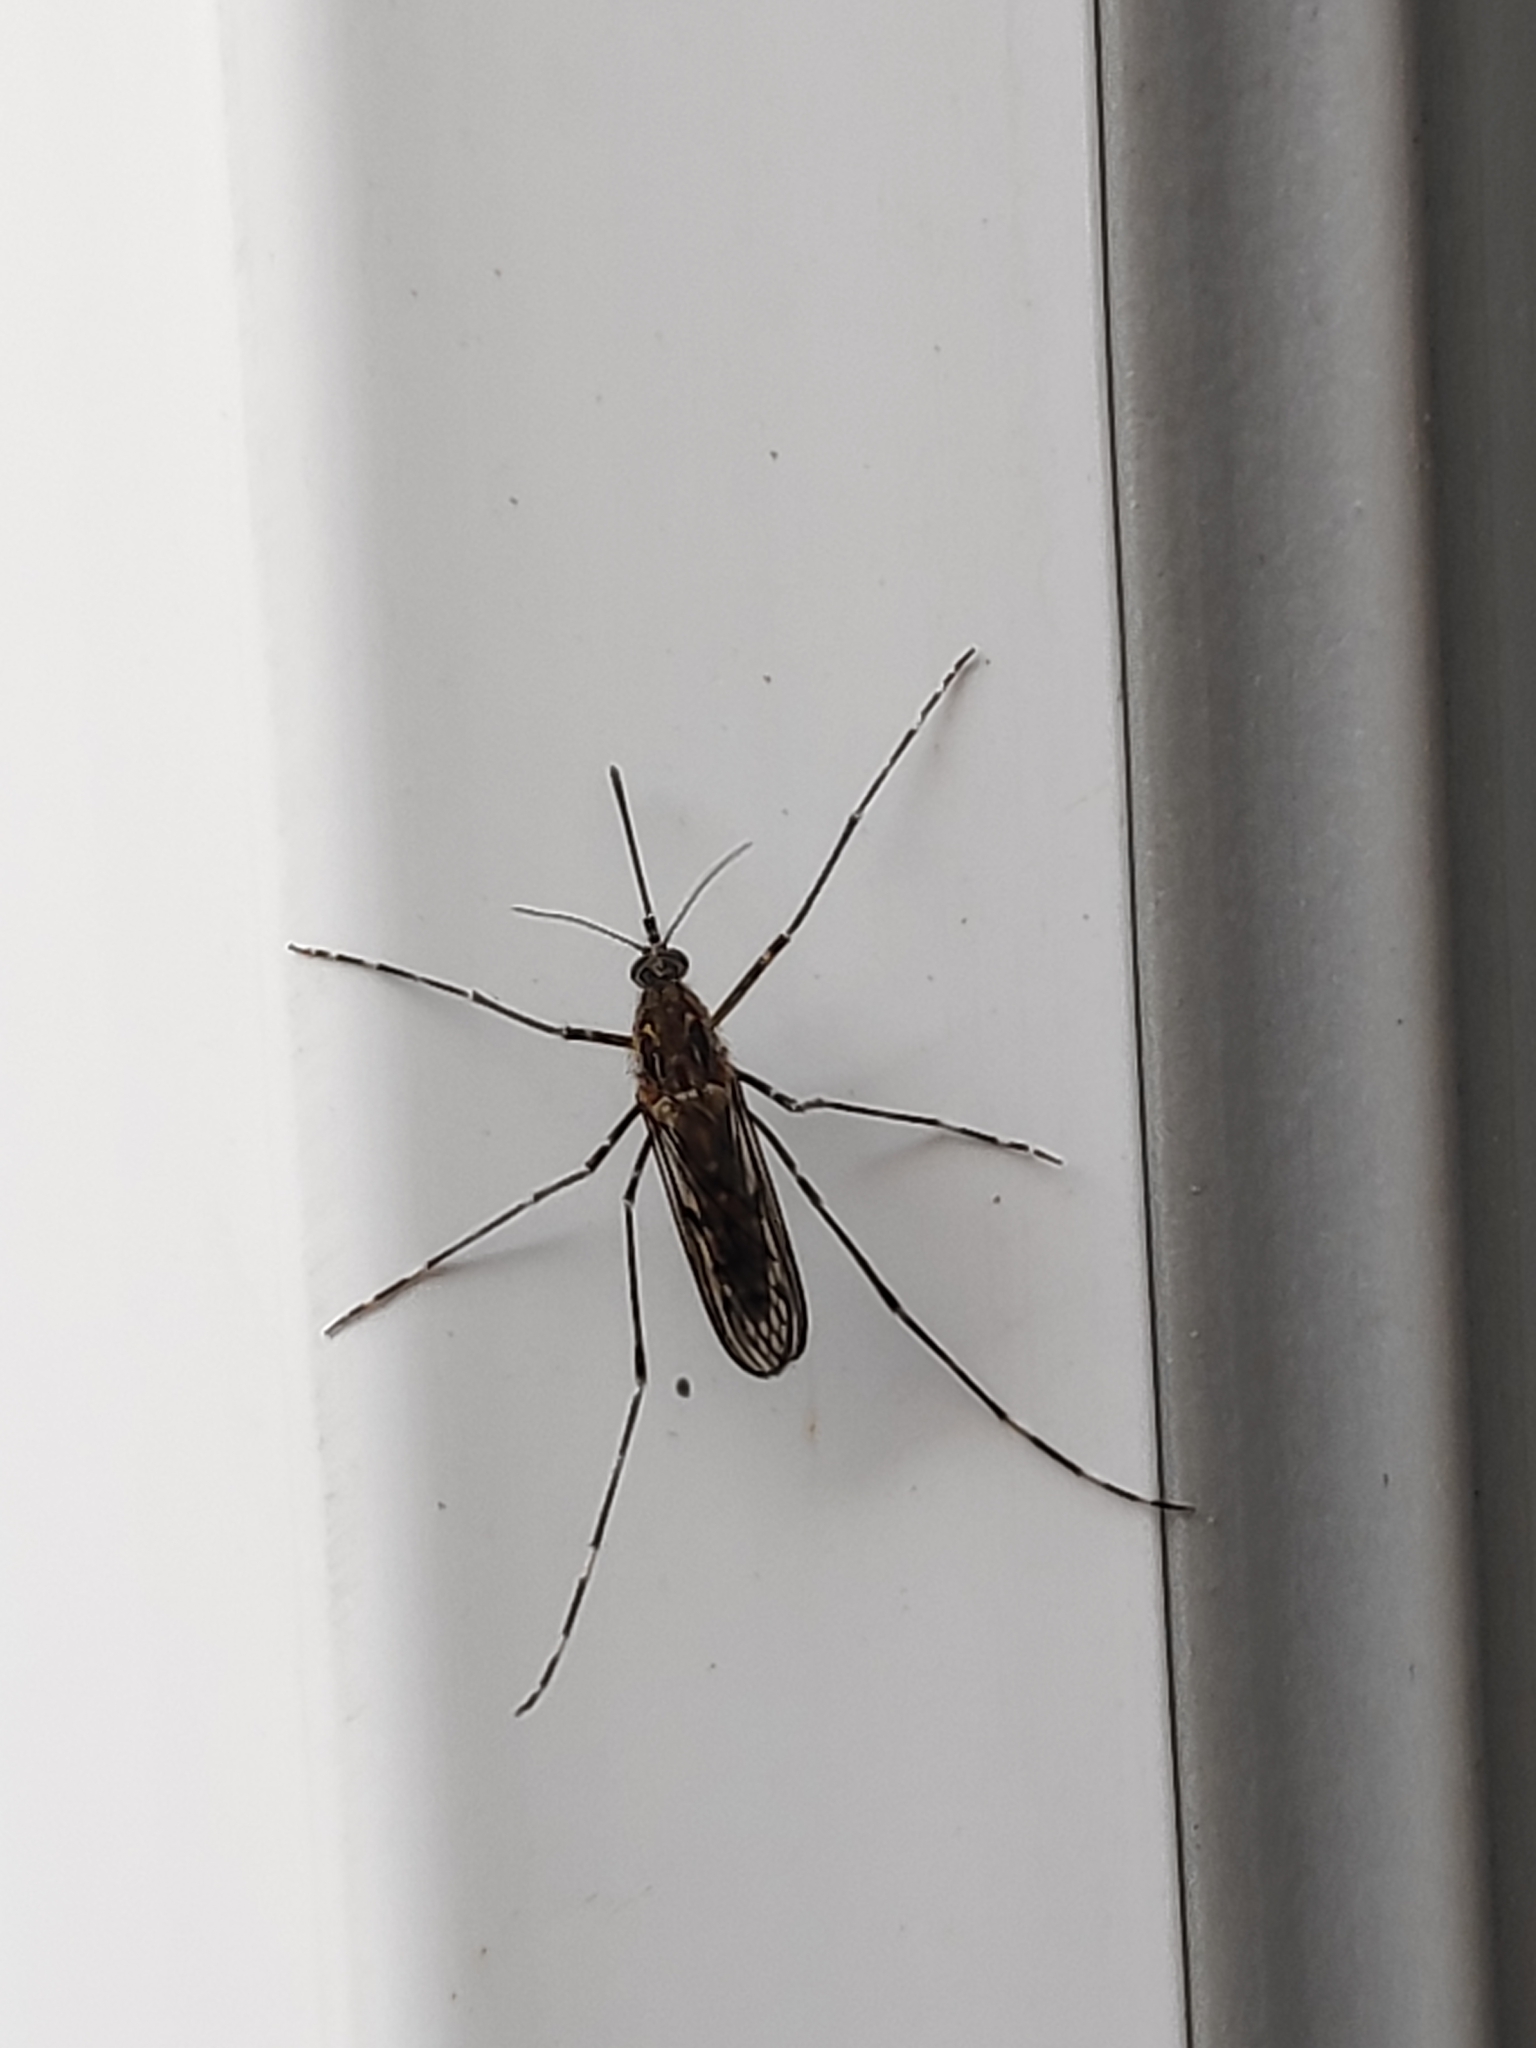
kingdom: Animalia
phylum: Arthropoda
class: Insecta
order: Diptera
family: Culicidae
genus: Culiseta
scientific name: Culiseta annulata
